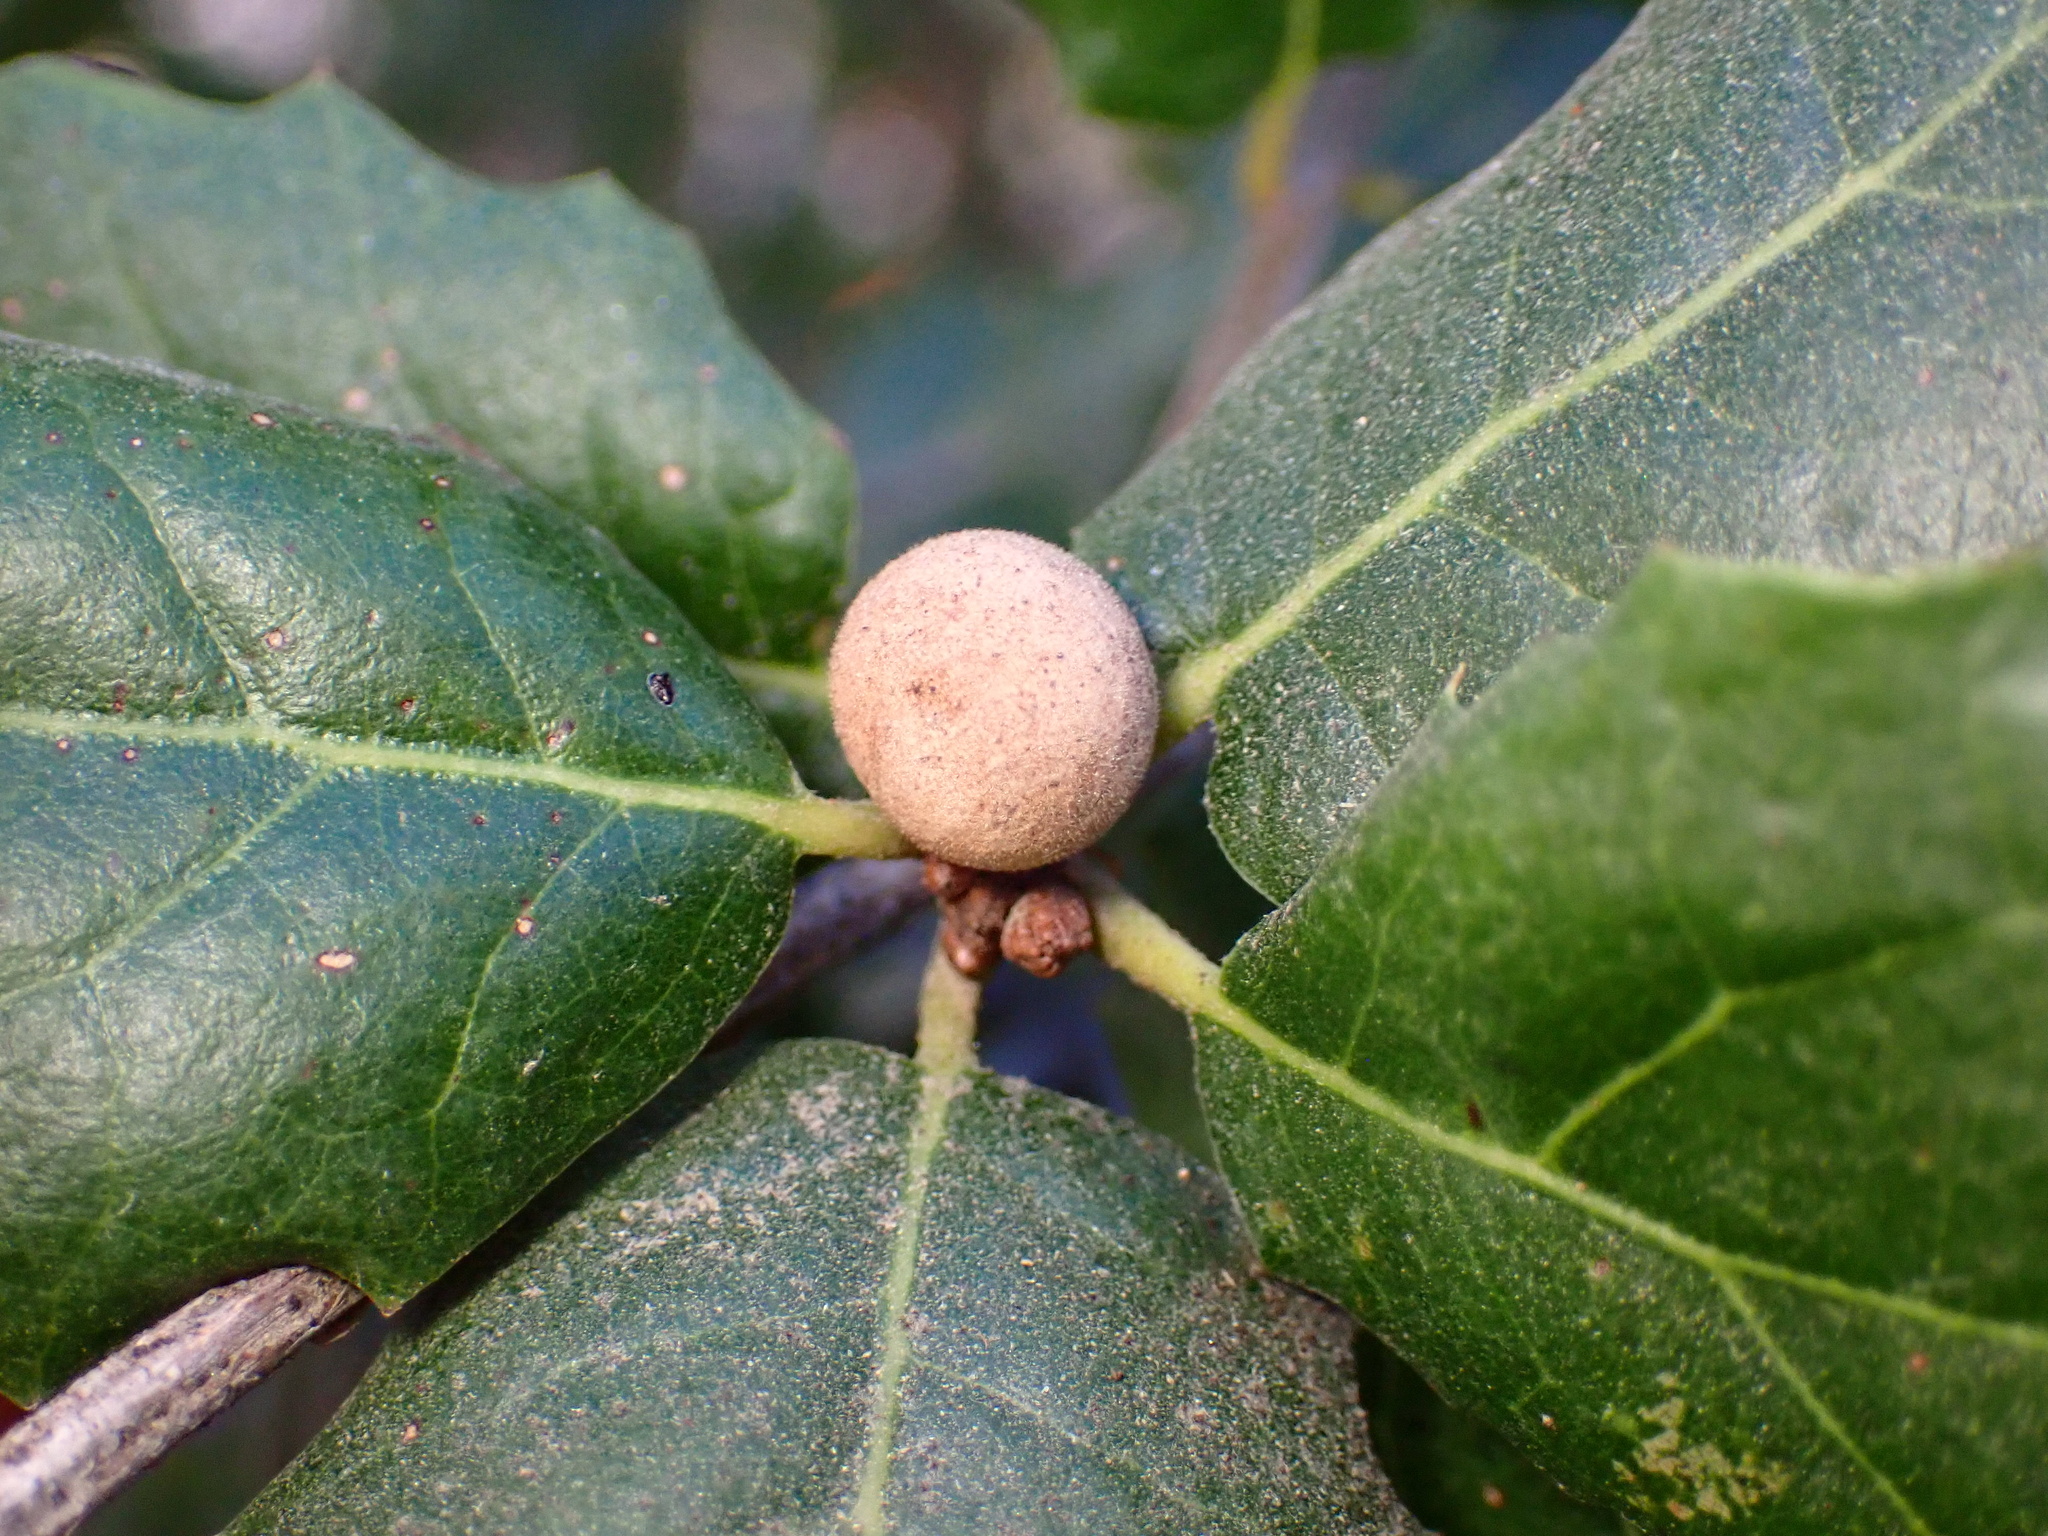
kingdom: Animalia
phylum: Arthropoda
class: Insecta
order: Hymenoptera
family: Cynipidae
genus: Callirhytis
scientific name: Callirhytis
